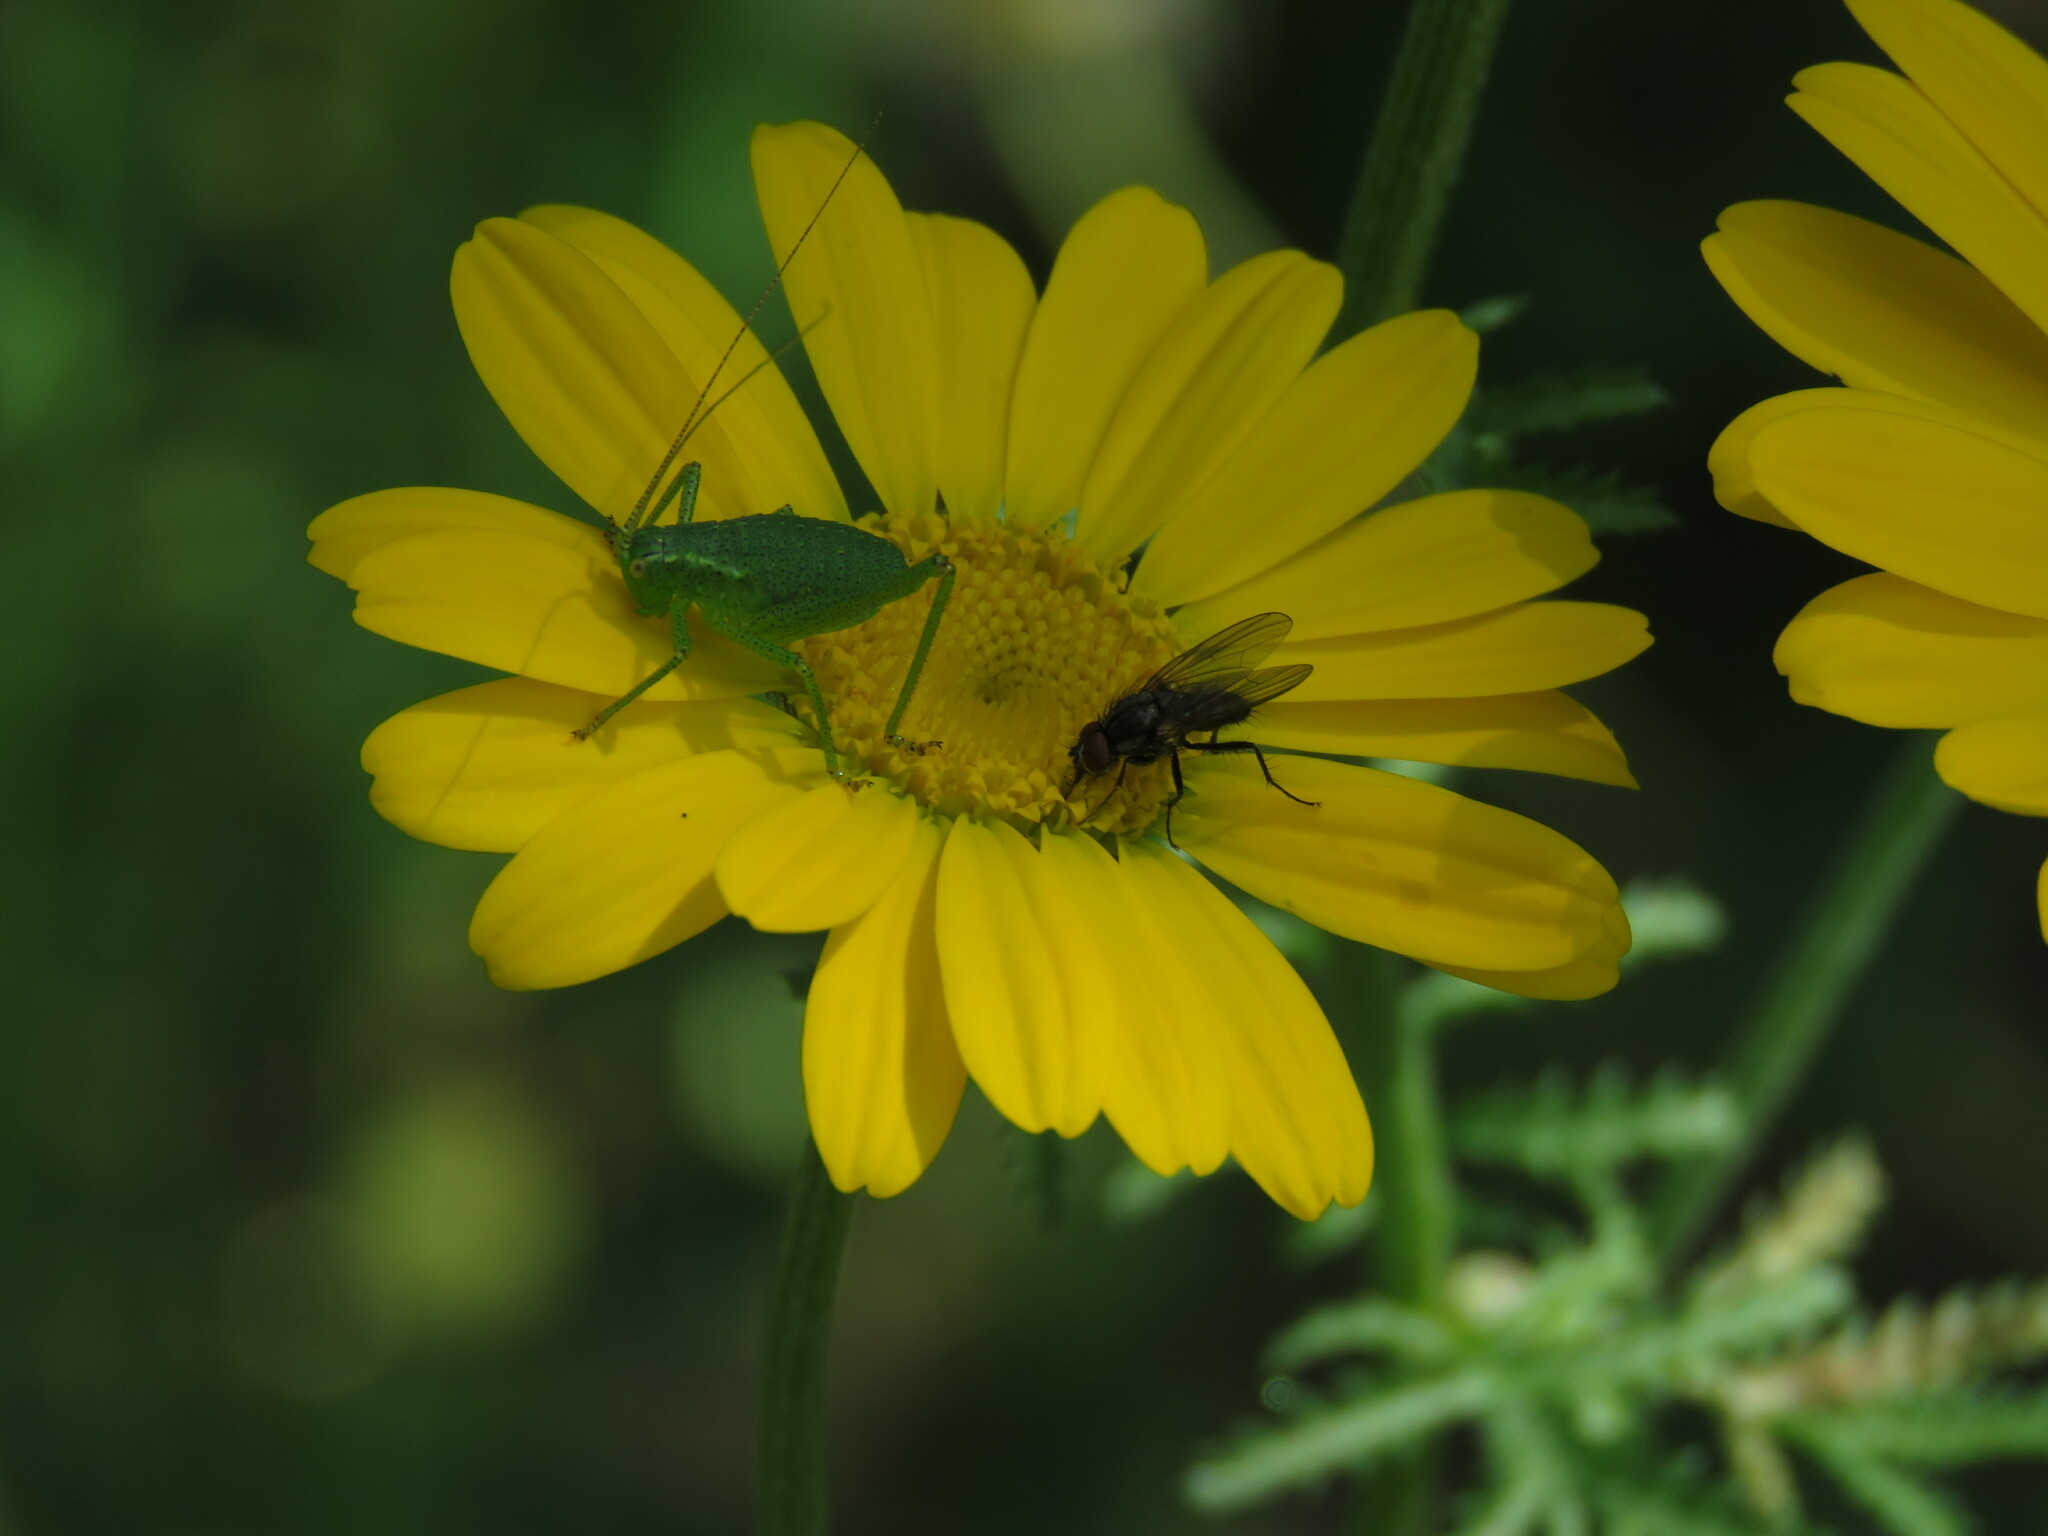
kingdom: Animalia
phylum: Arthropoda
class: Insecta
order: Orthoptera
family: Tettigoniidae
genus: Leptophyes
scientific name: Leptophyes punctatissima
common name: Speckled bush-cricket
